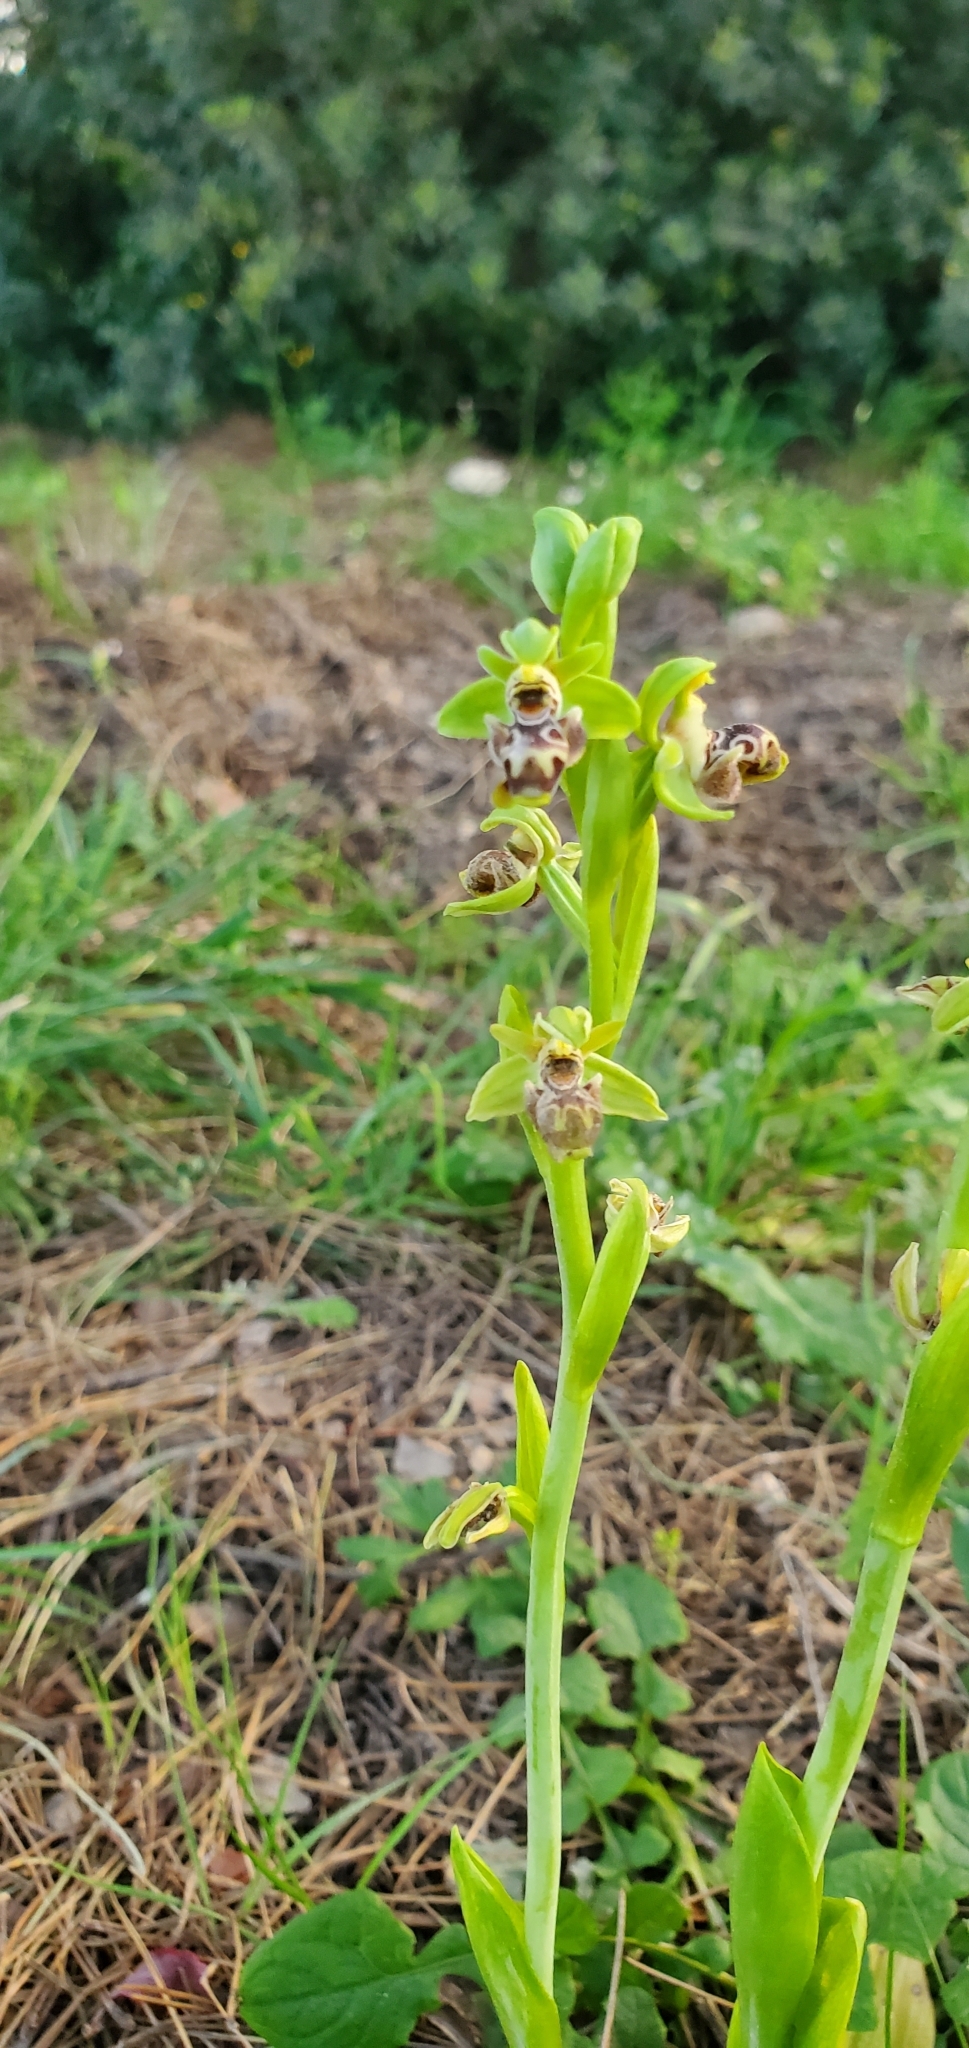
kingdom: Plantae
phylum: Tracheophyta
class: Liliopsida
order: Asparagales
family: Orchidaceae
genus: Ophrys
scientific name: Ophrys umbilicata
